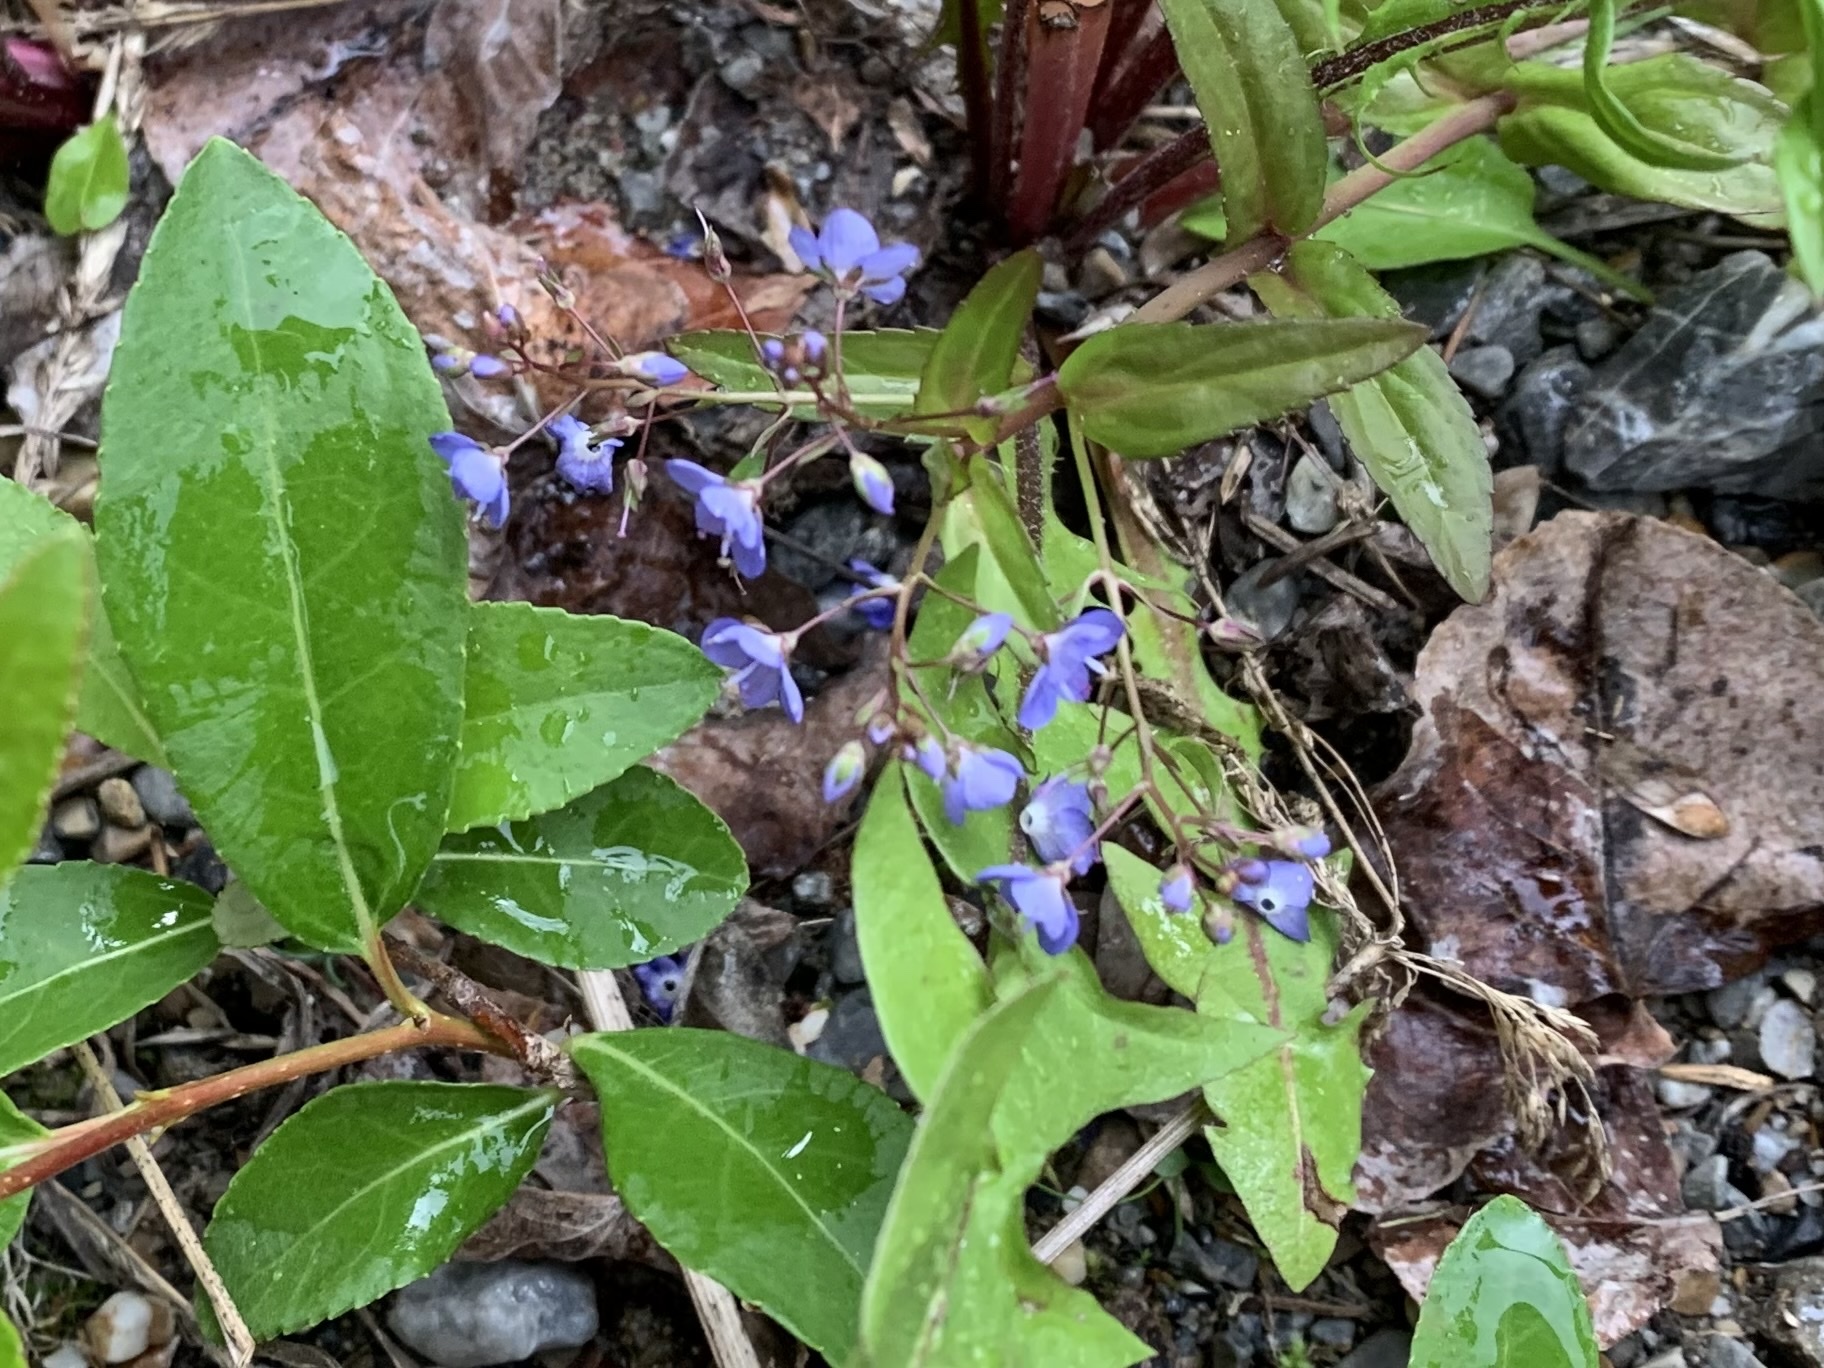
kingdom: Plantae
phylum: Tracheophyta
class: Magnoliopsida
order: Lamiales
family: Plantaginaceae
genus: Veronica
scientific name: Veronica americana
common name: American brooklime
